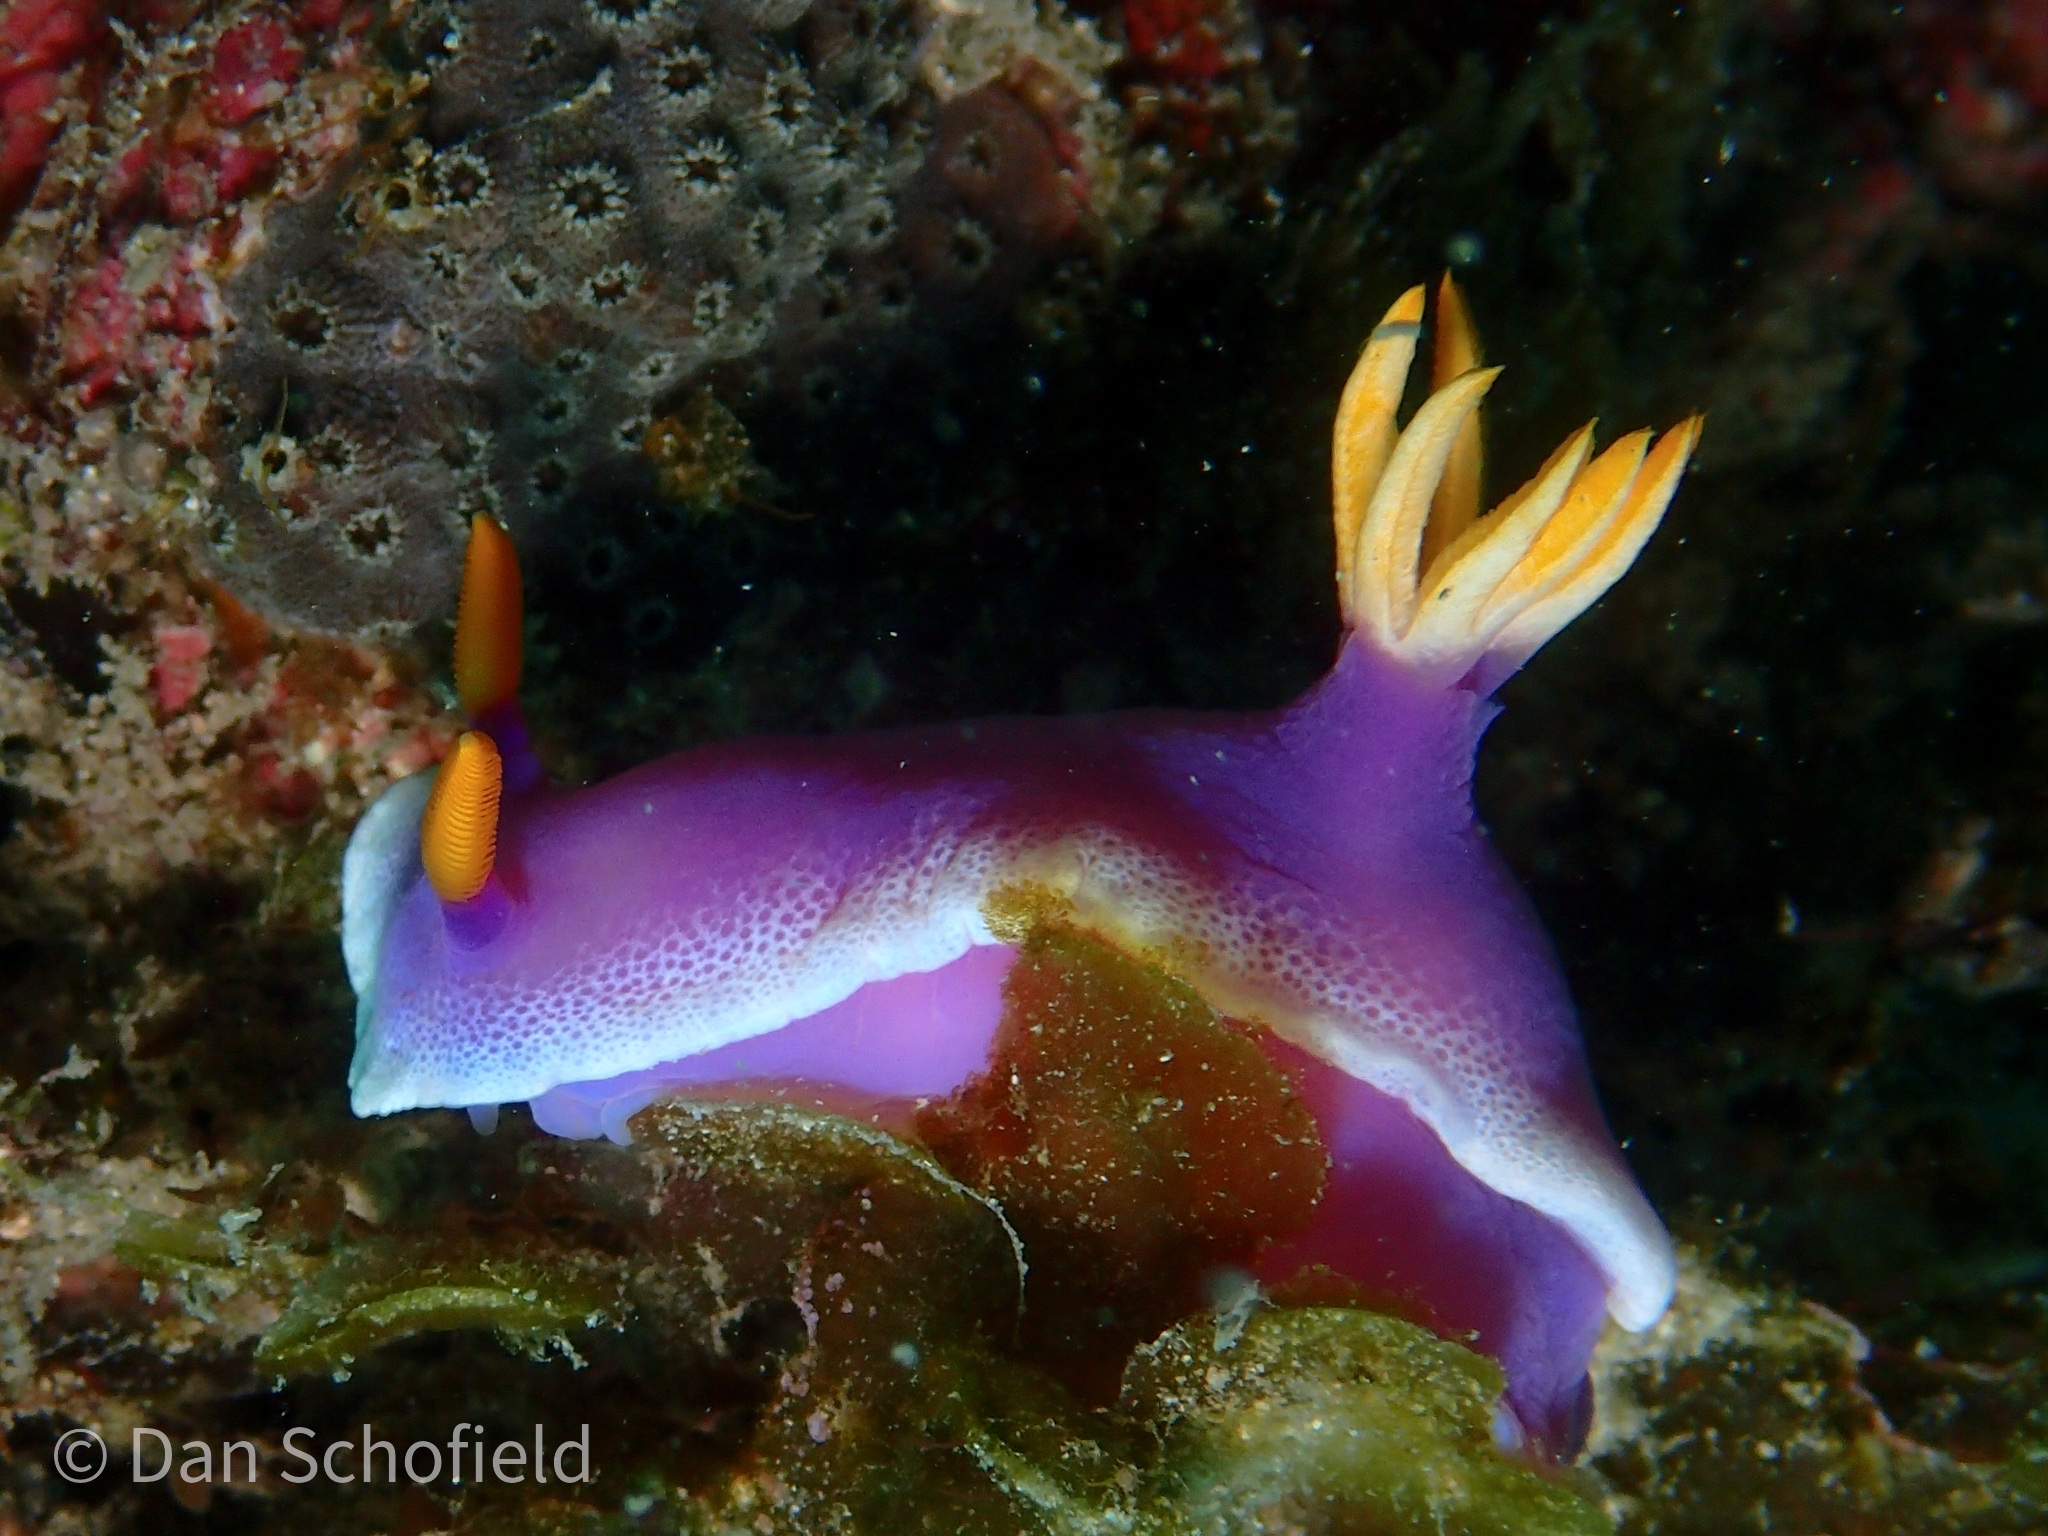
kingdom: Animalia
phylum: Mollusca
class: Gastropoda
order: Nudibranchia
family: Chromodorididae
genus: Hypselodoris
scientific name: Hypselodoris apolegma
